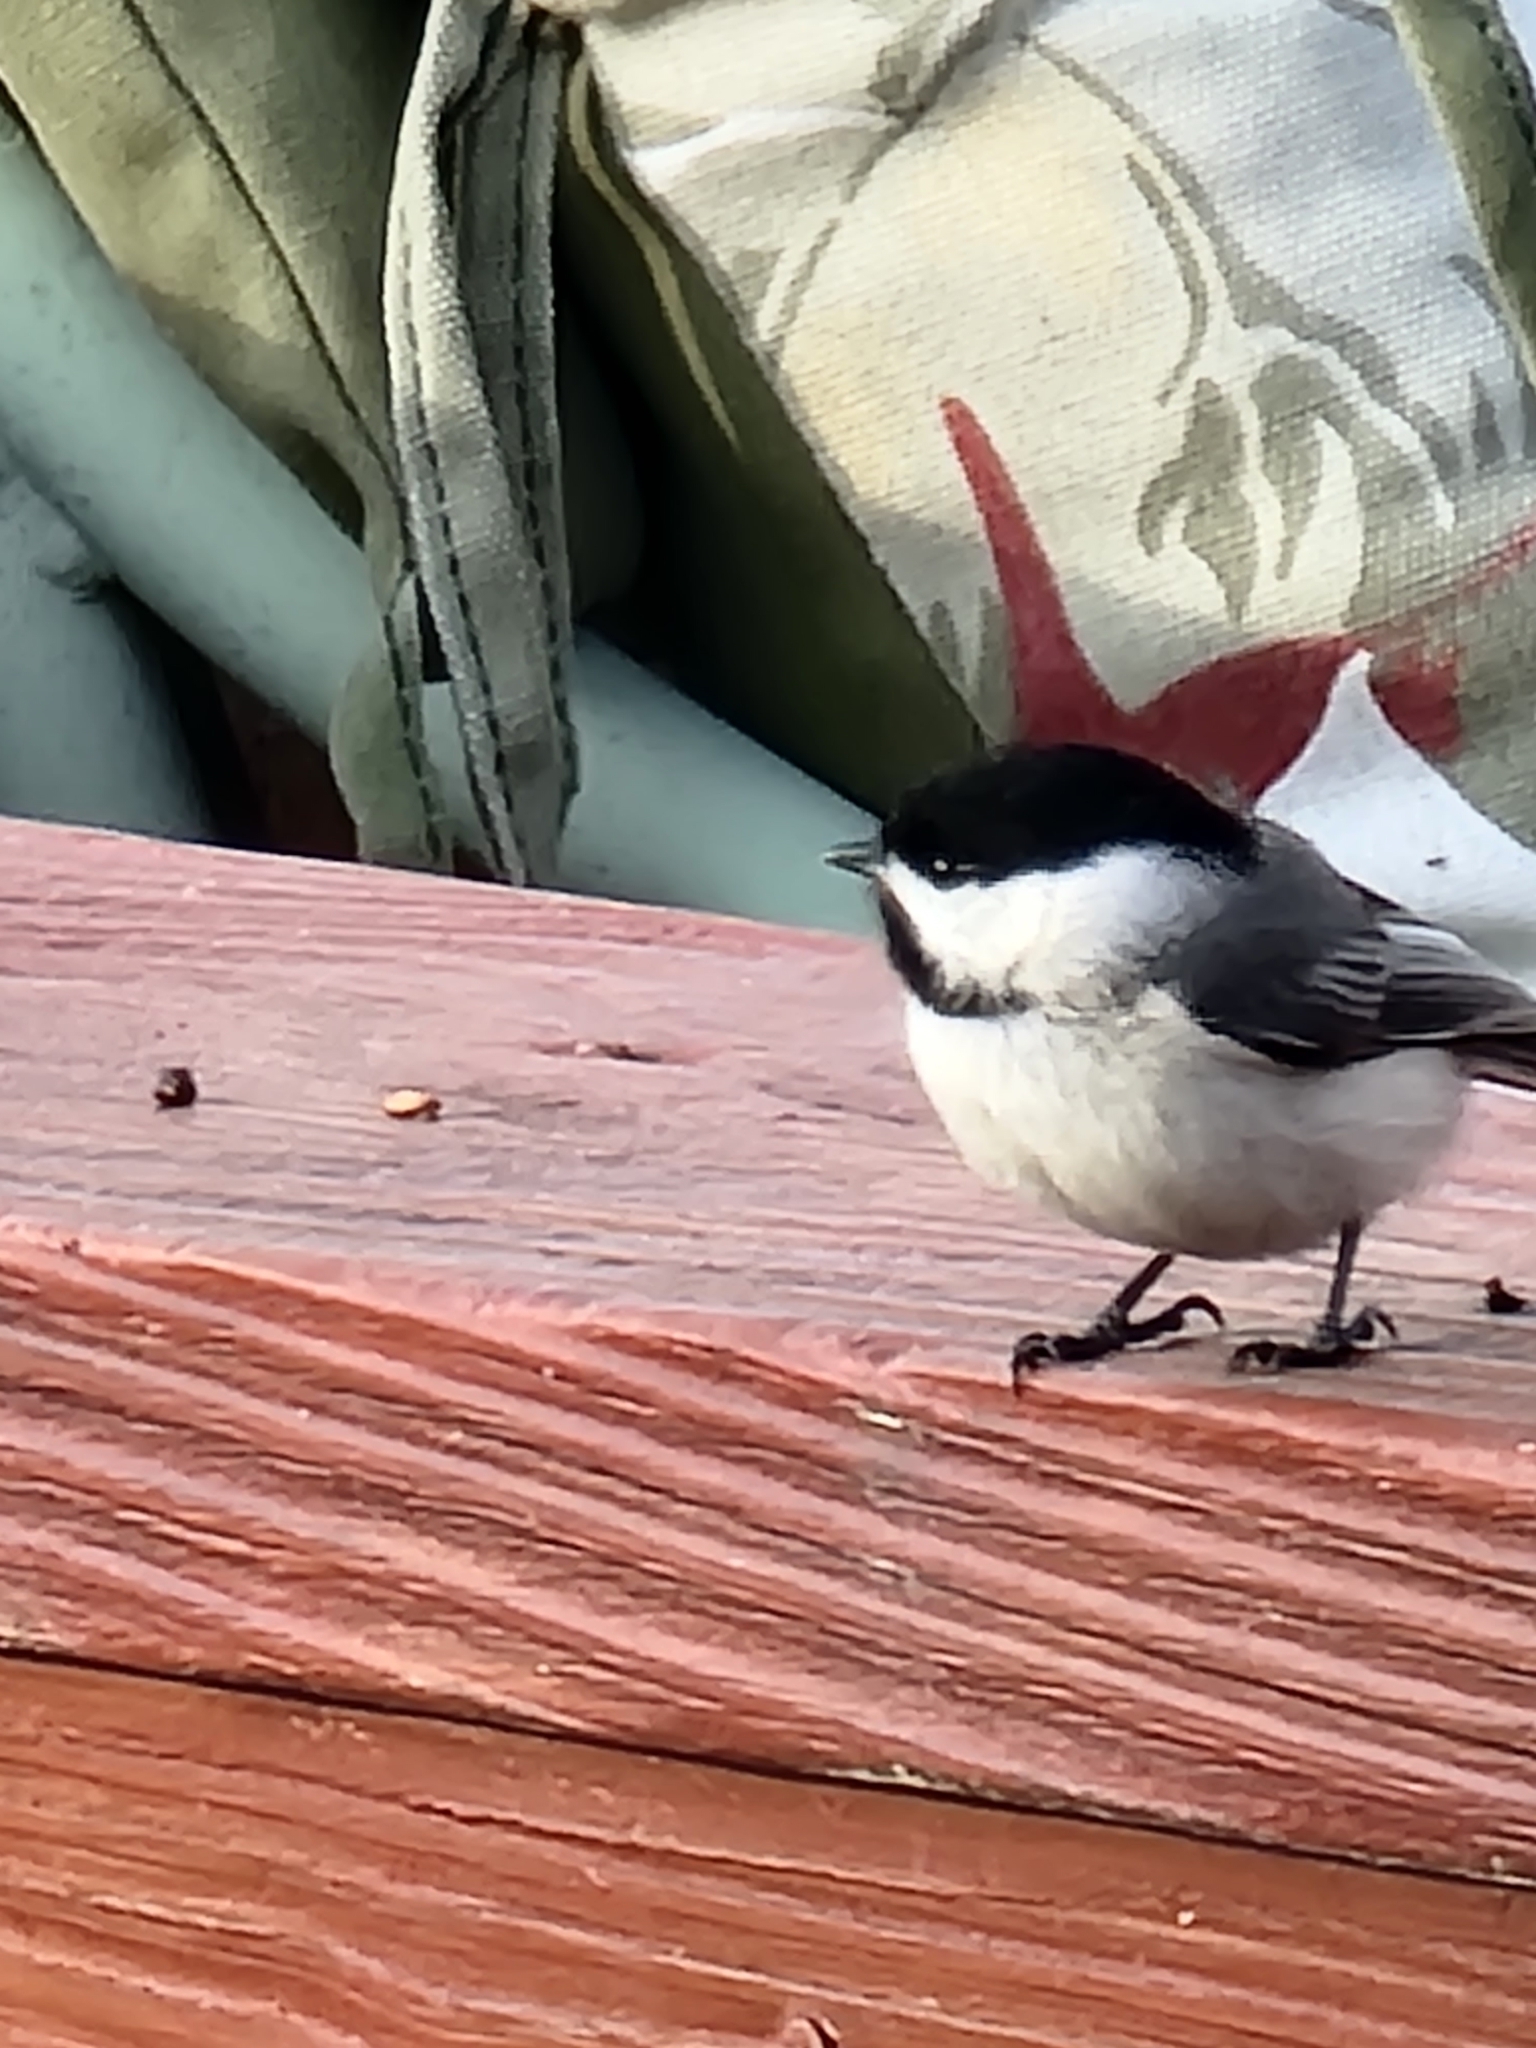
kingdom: Animalia
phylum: Chordata
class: Aves
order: Passeriformes
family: Paridae
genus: Poecile
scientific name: Poecile carolinensis
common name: Carolina chickadee
